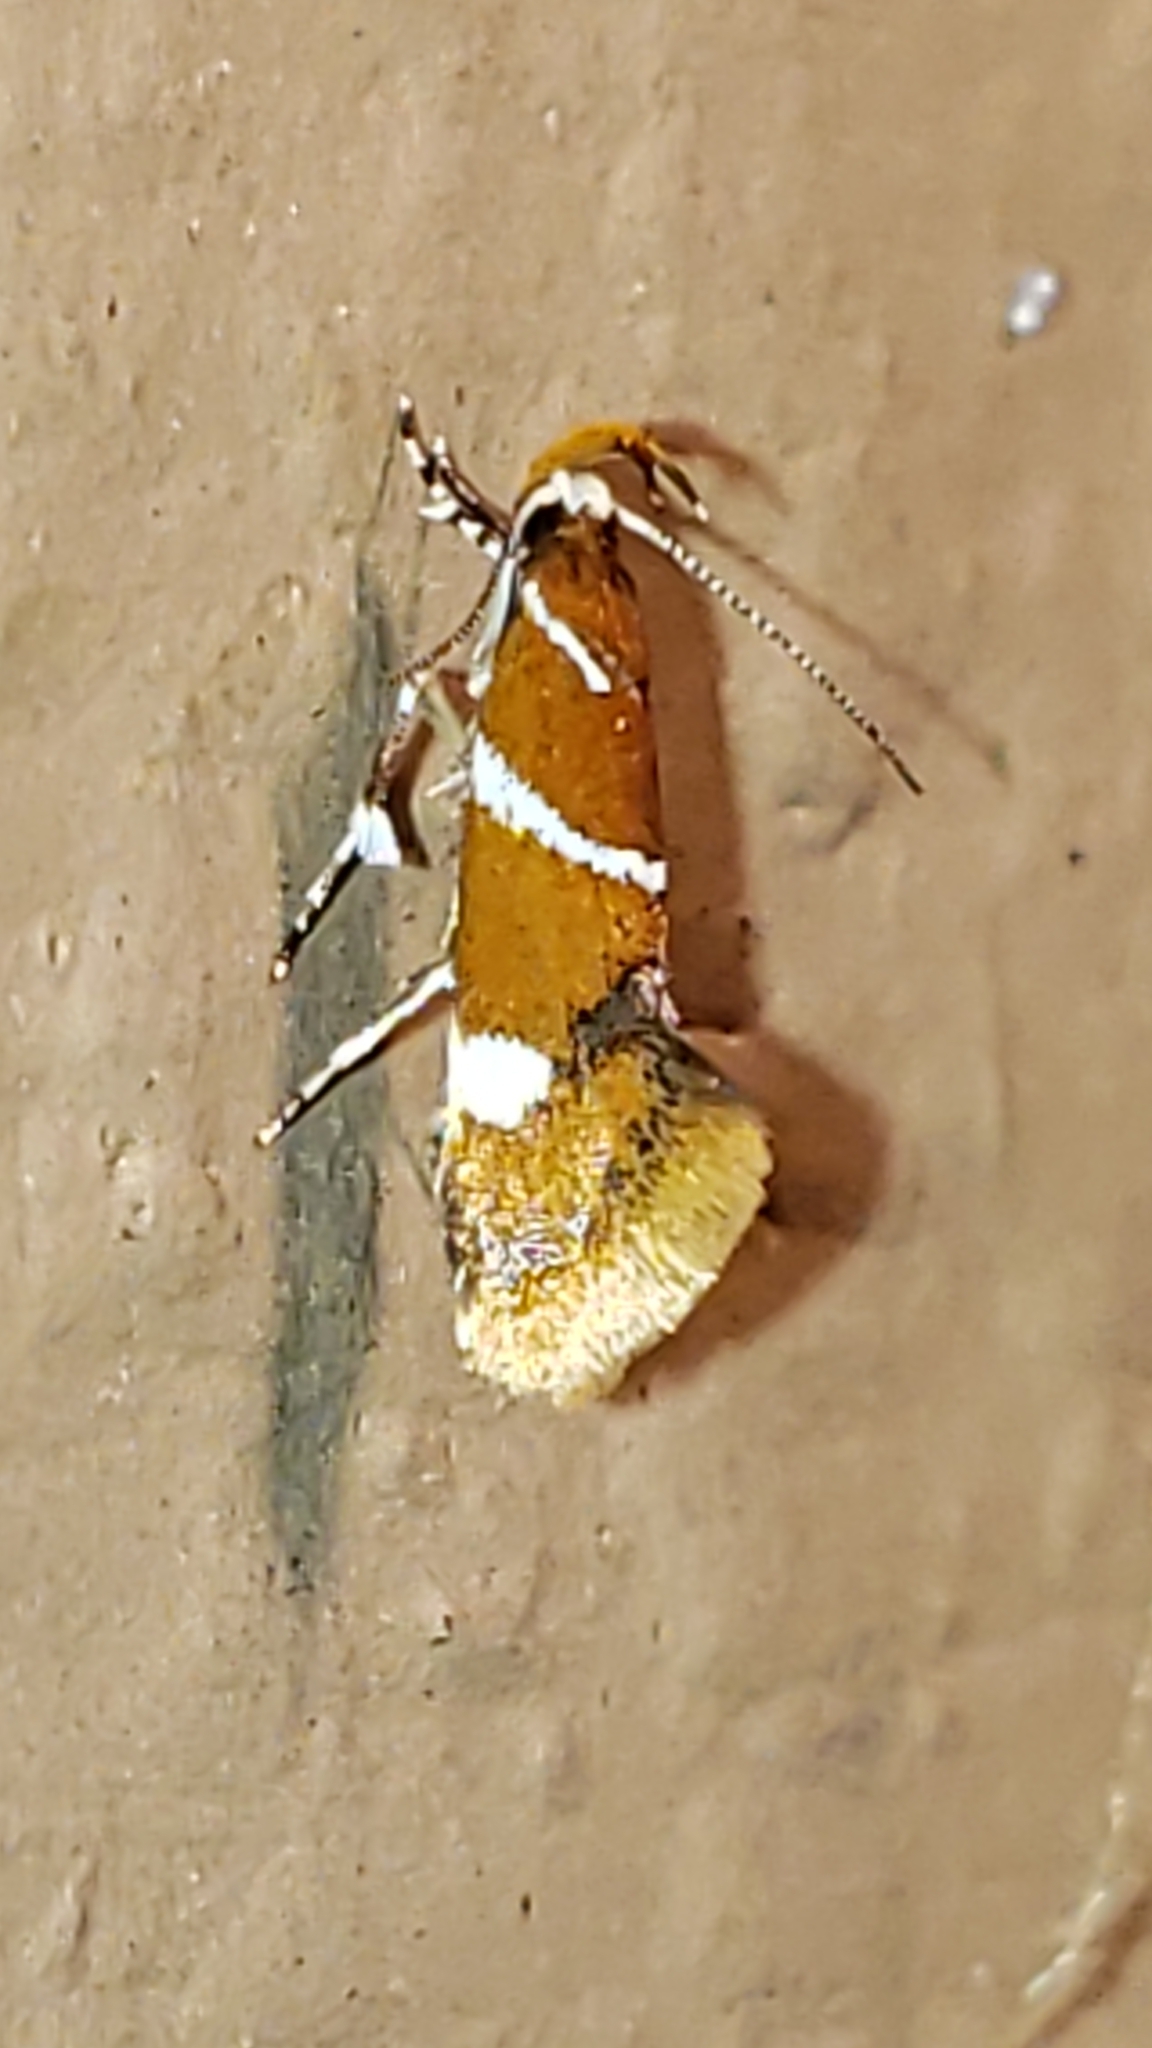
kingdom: Animalia
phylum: Arthropoda
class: Insecta
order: Lepidoptera
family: Oecophoridae
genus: Promalactis
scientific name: Promalactis suzukiella
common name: Moth
